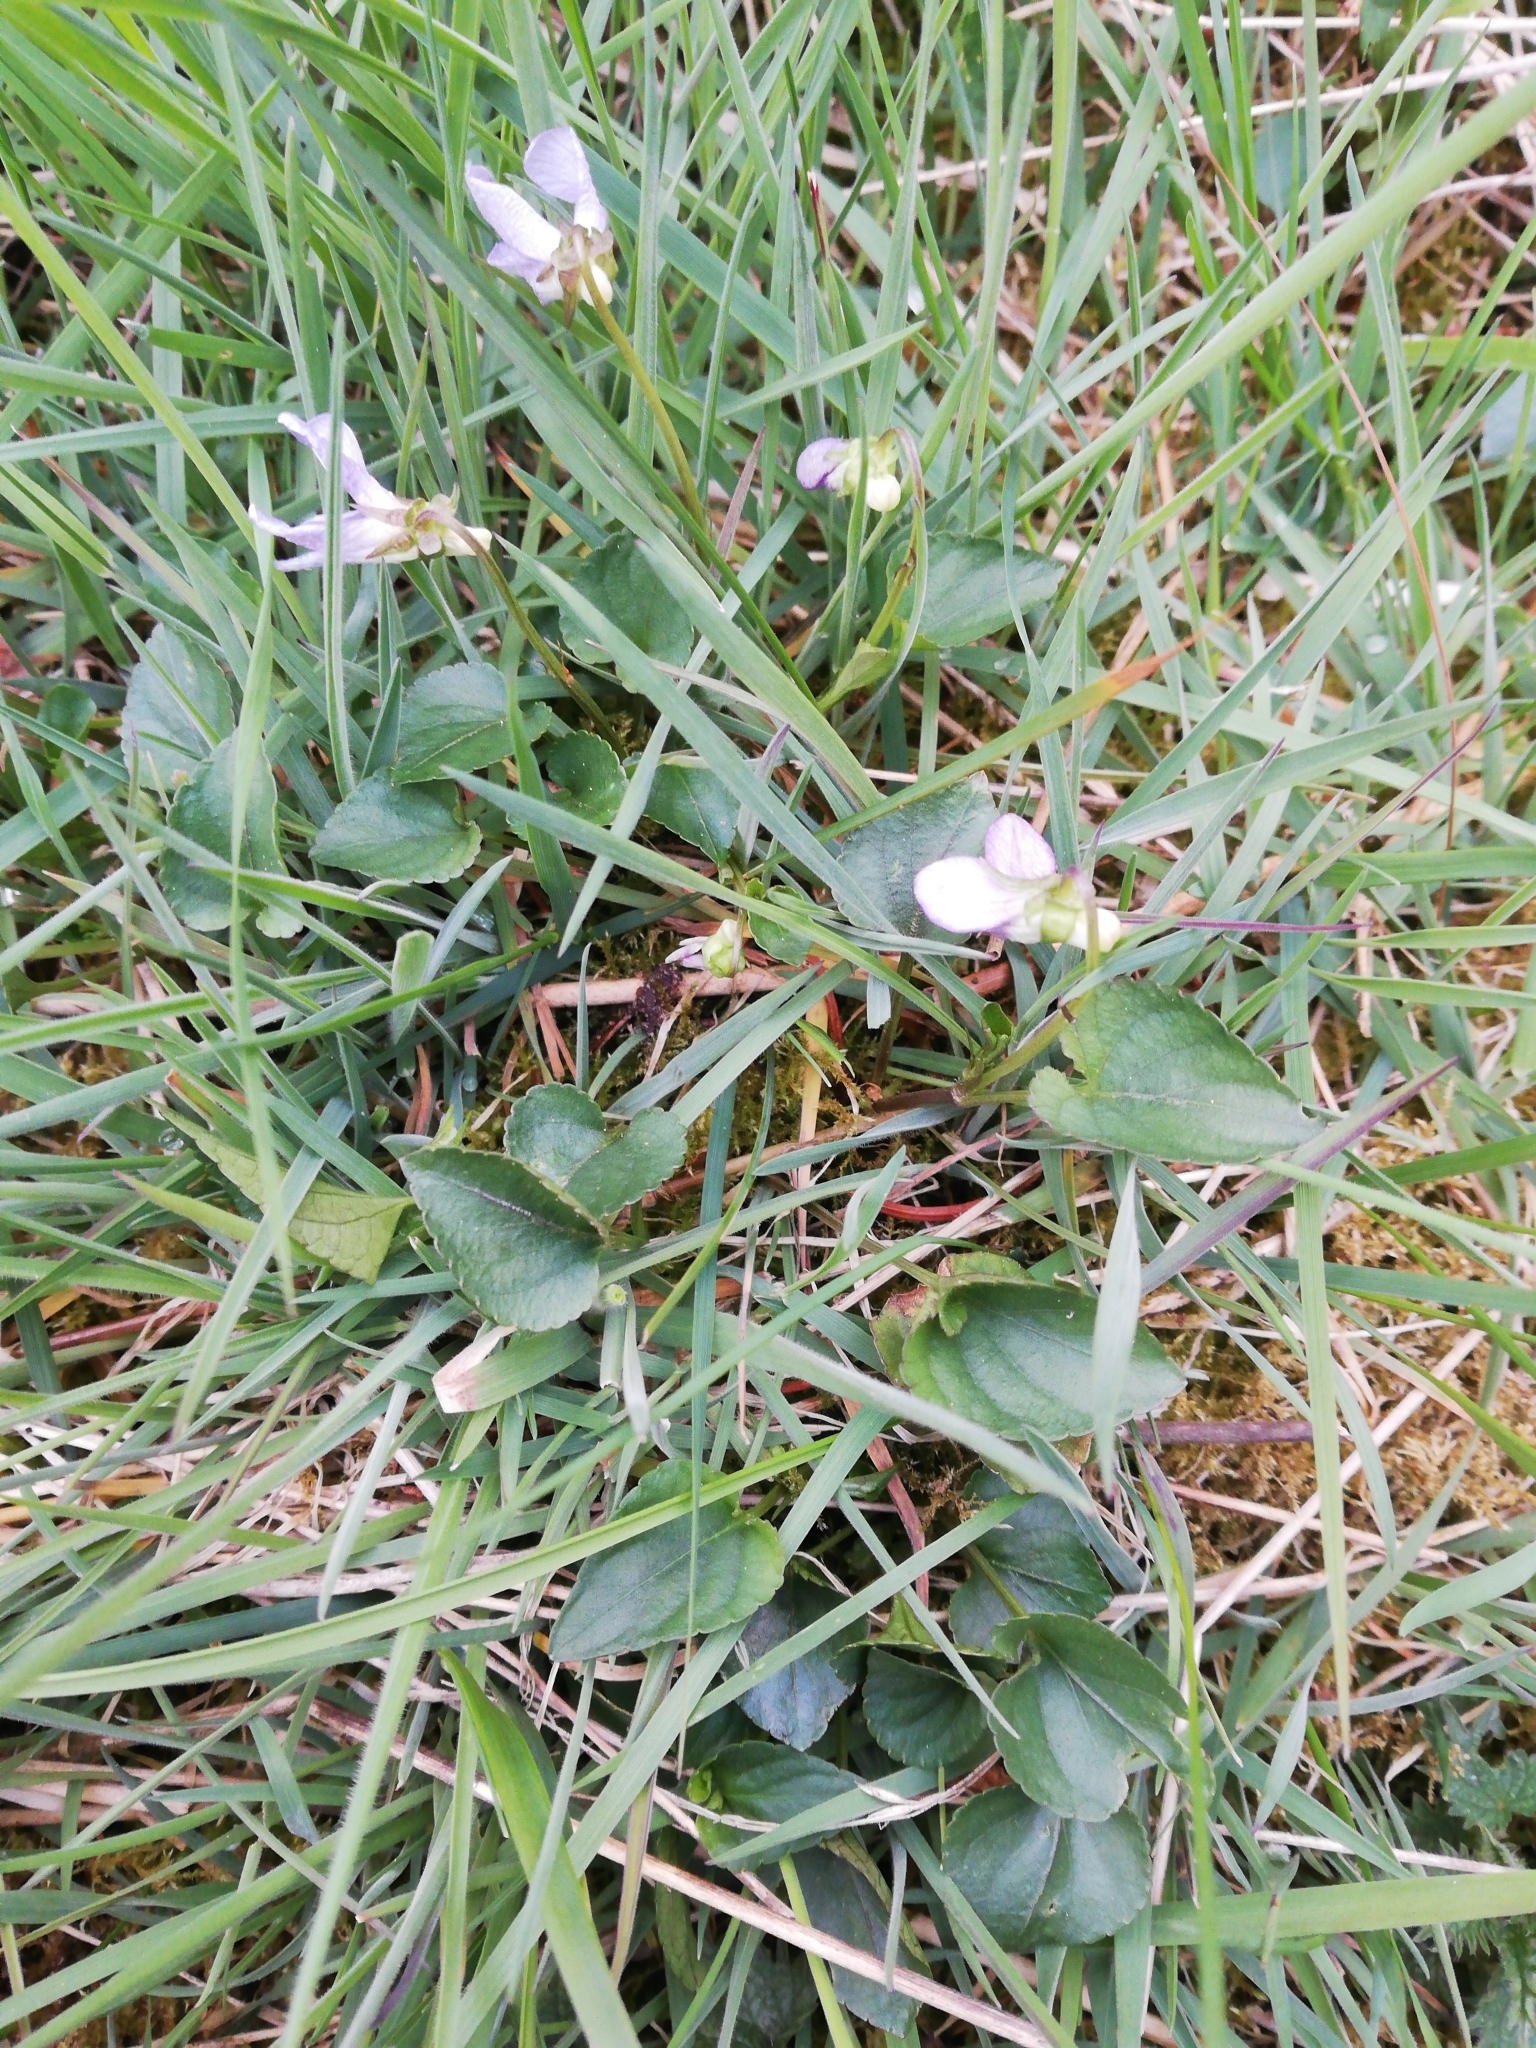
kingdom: Plantae
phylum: Tracheophyta
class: Magnoliopsida
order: Malpighiales
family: Violaceae
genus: Viola
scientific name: Viola riviniana
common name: Common dog-violet
